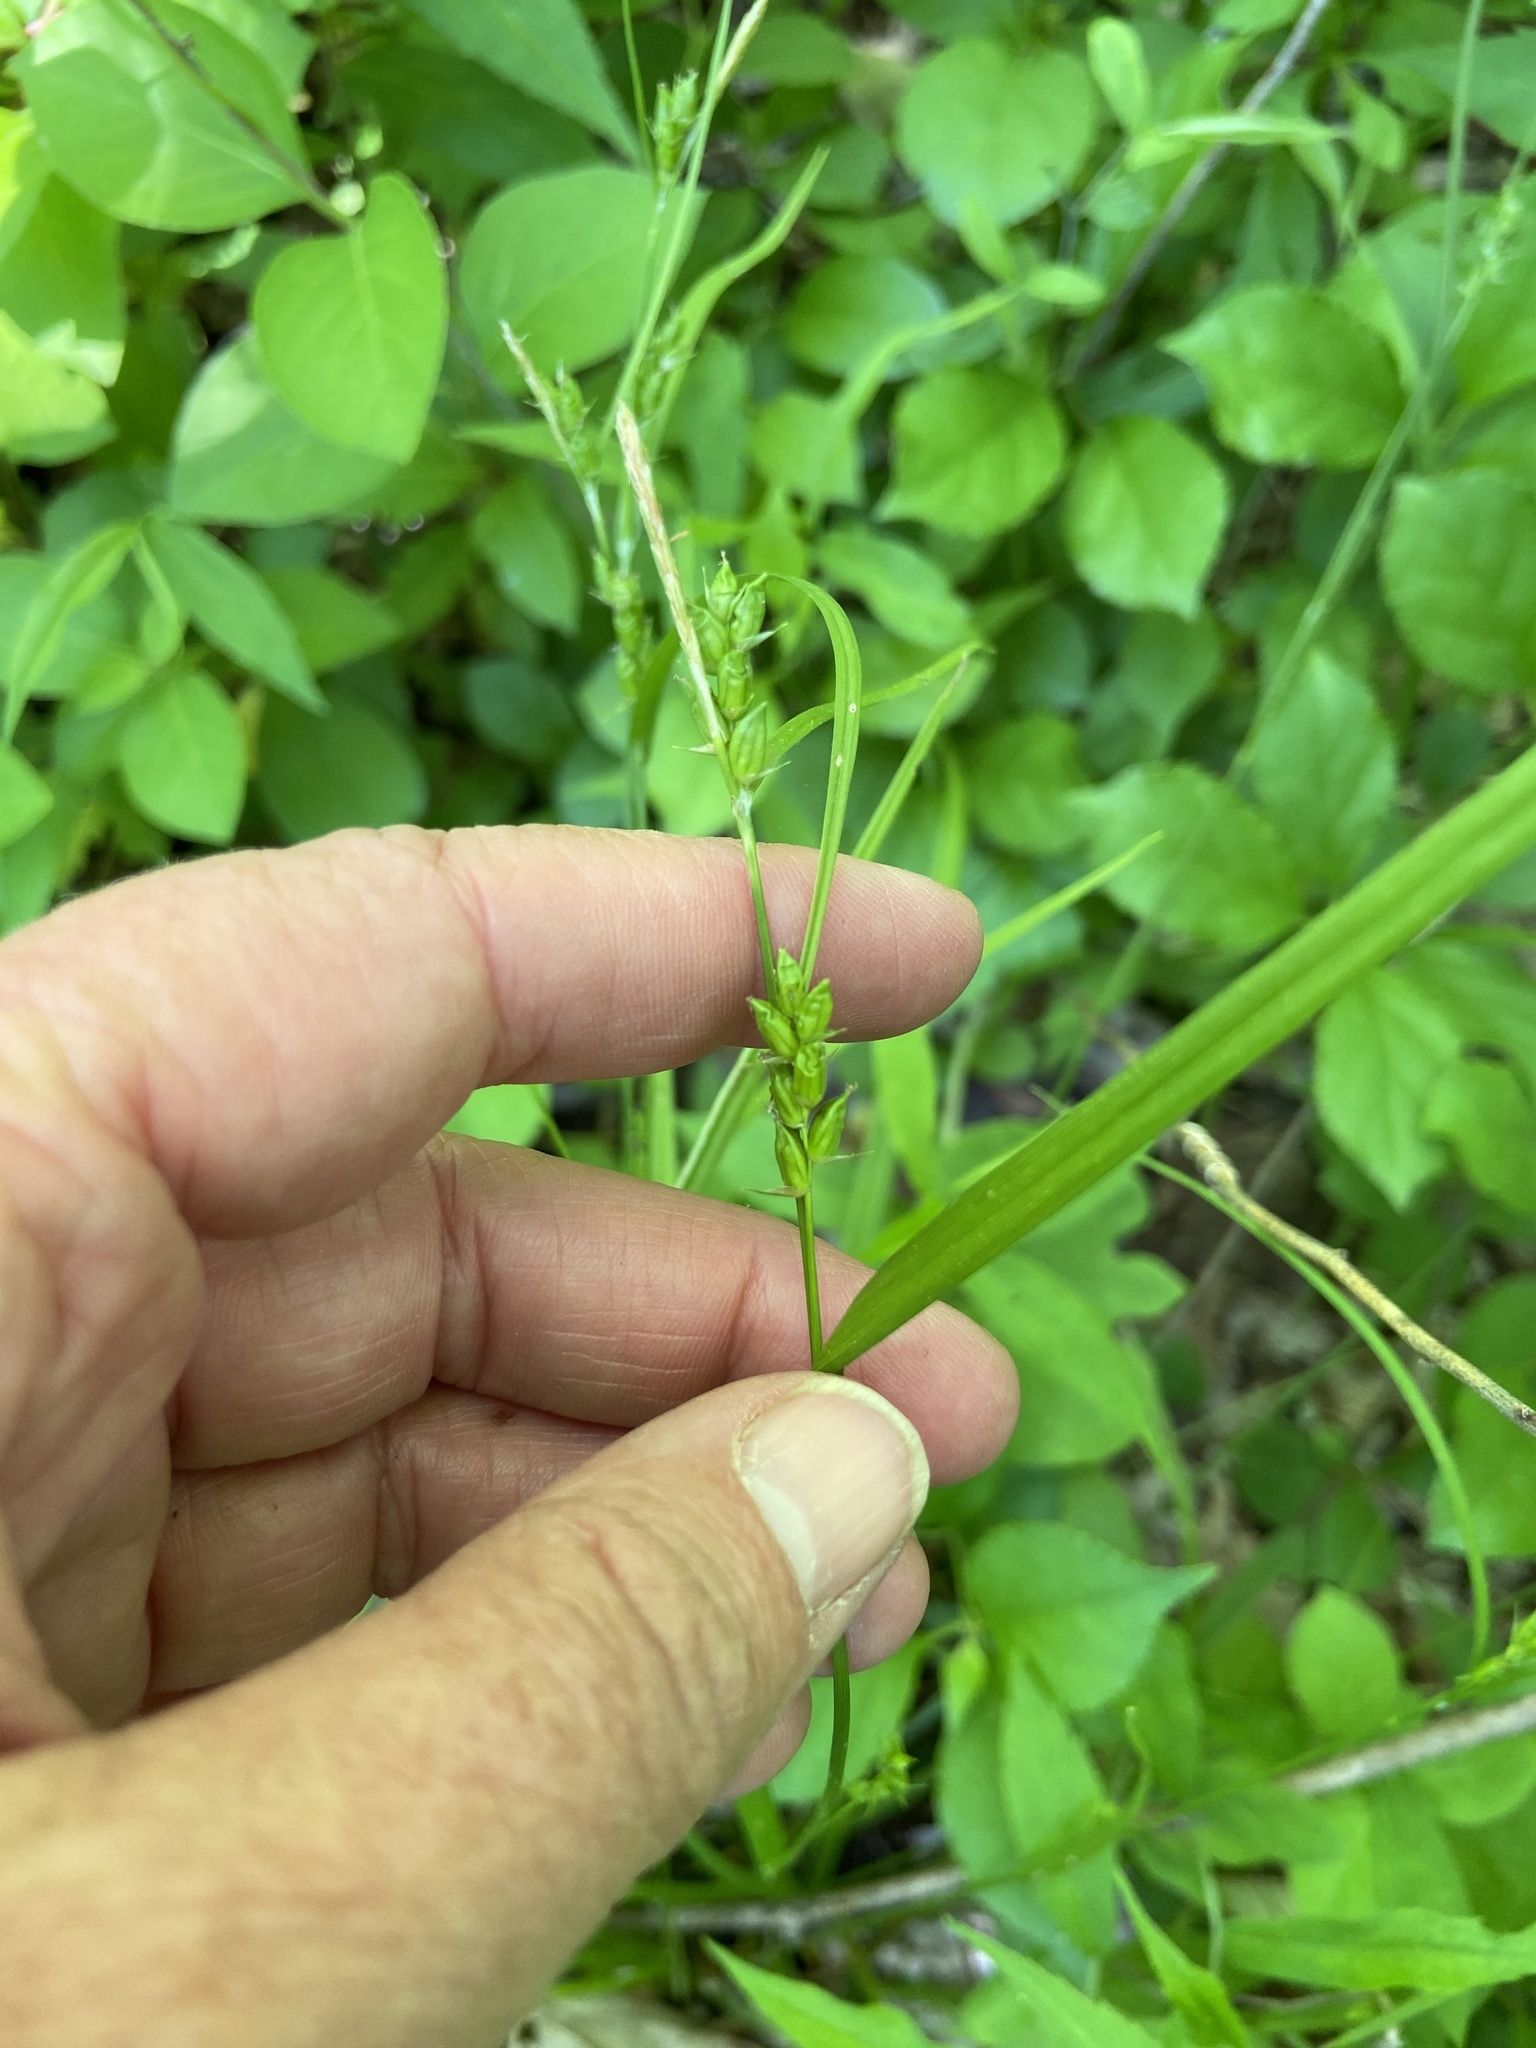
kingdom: Plantae
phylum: Tracheophyta
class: Liliopsida
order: Poales
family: Cyperaceae
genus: Carex
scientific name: Carex grisea
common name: Eastern narrow-leaved sedge
